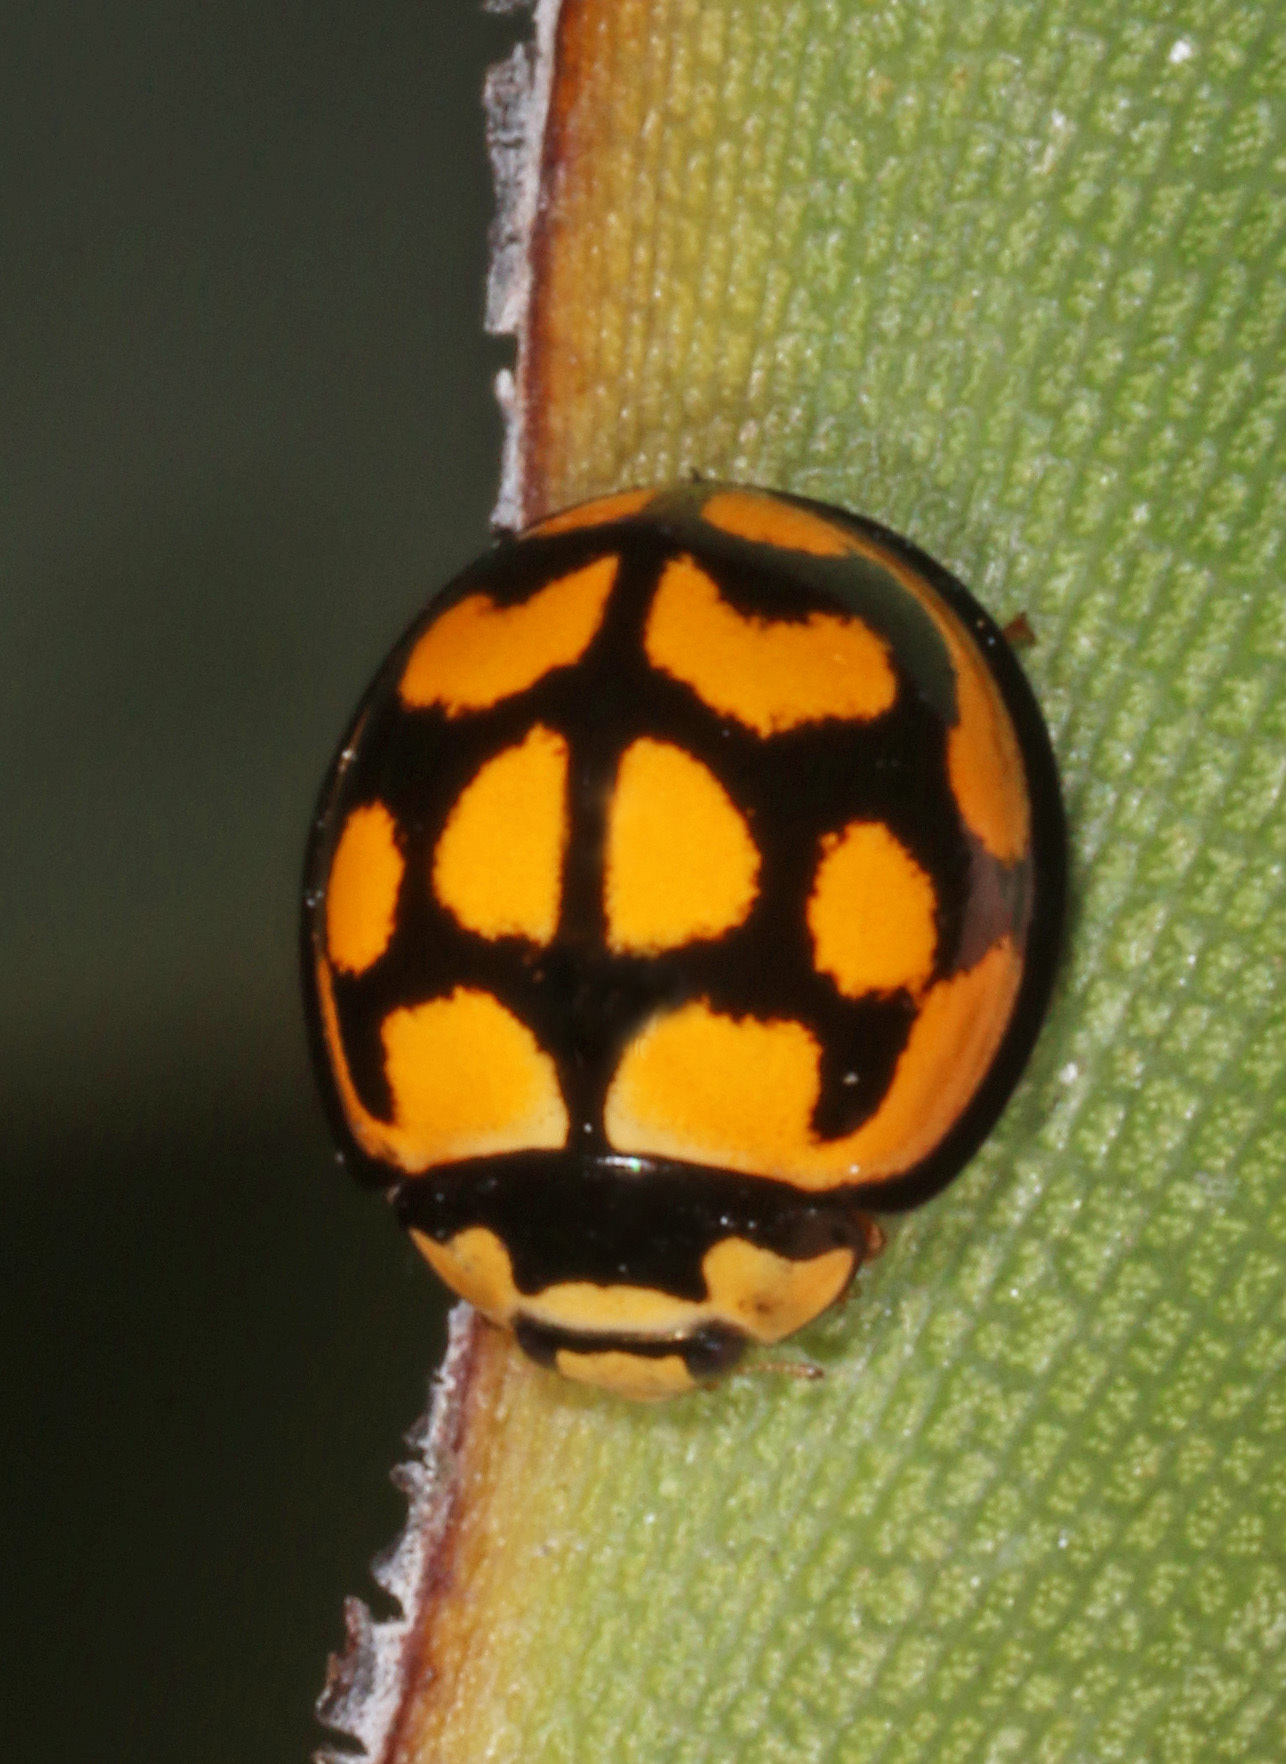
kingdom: Animalia
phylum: Arthropoda
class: Insecta
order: Coleoptera
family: Coccinellidae
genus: Cheilomenes
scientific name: Cheilomenes lunata
